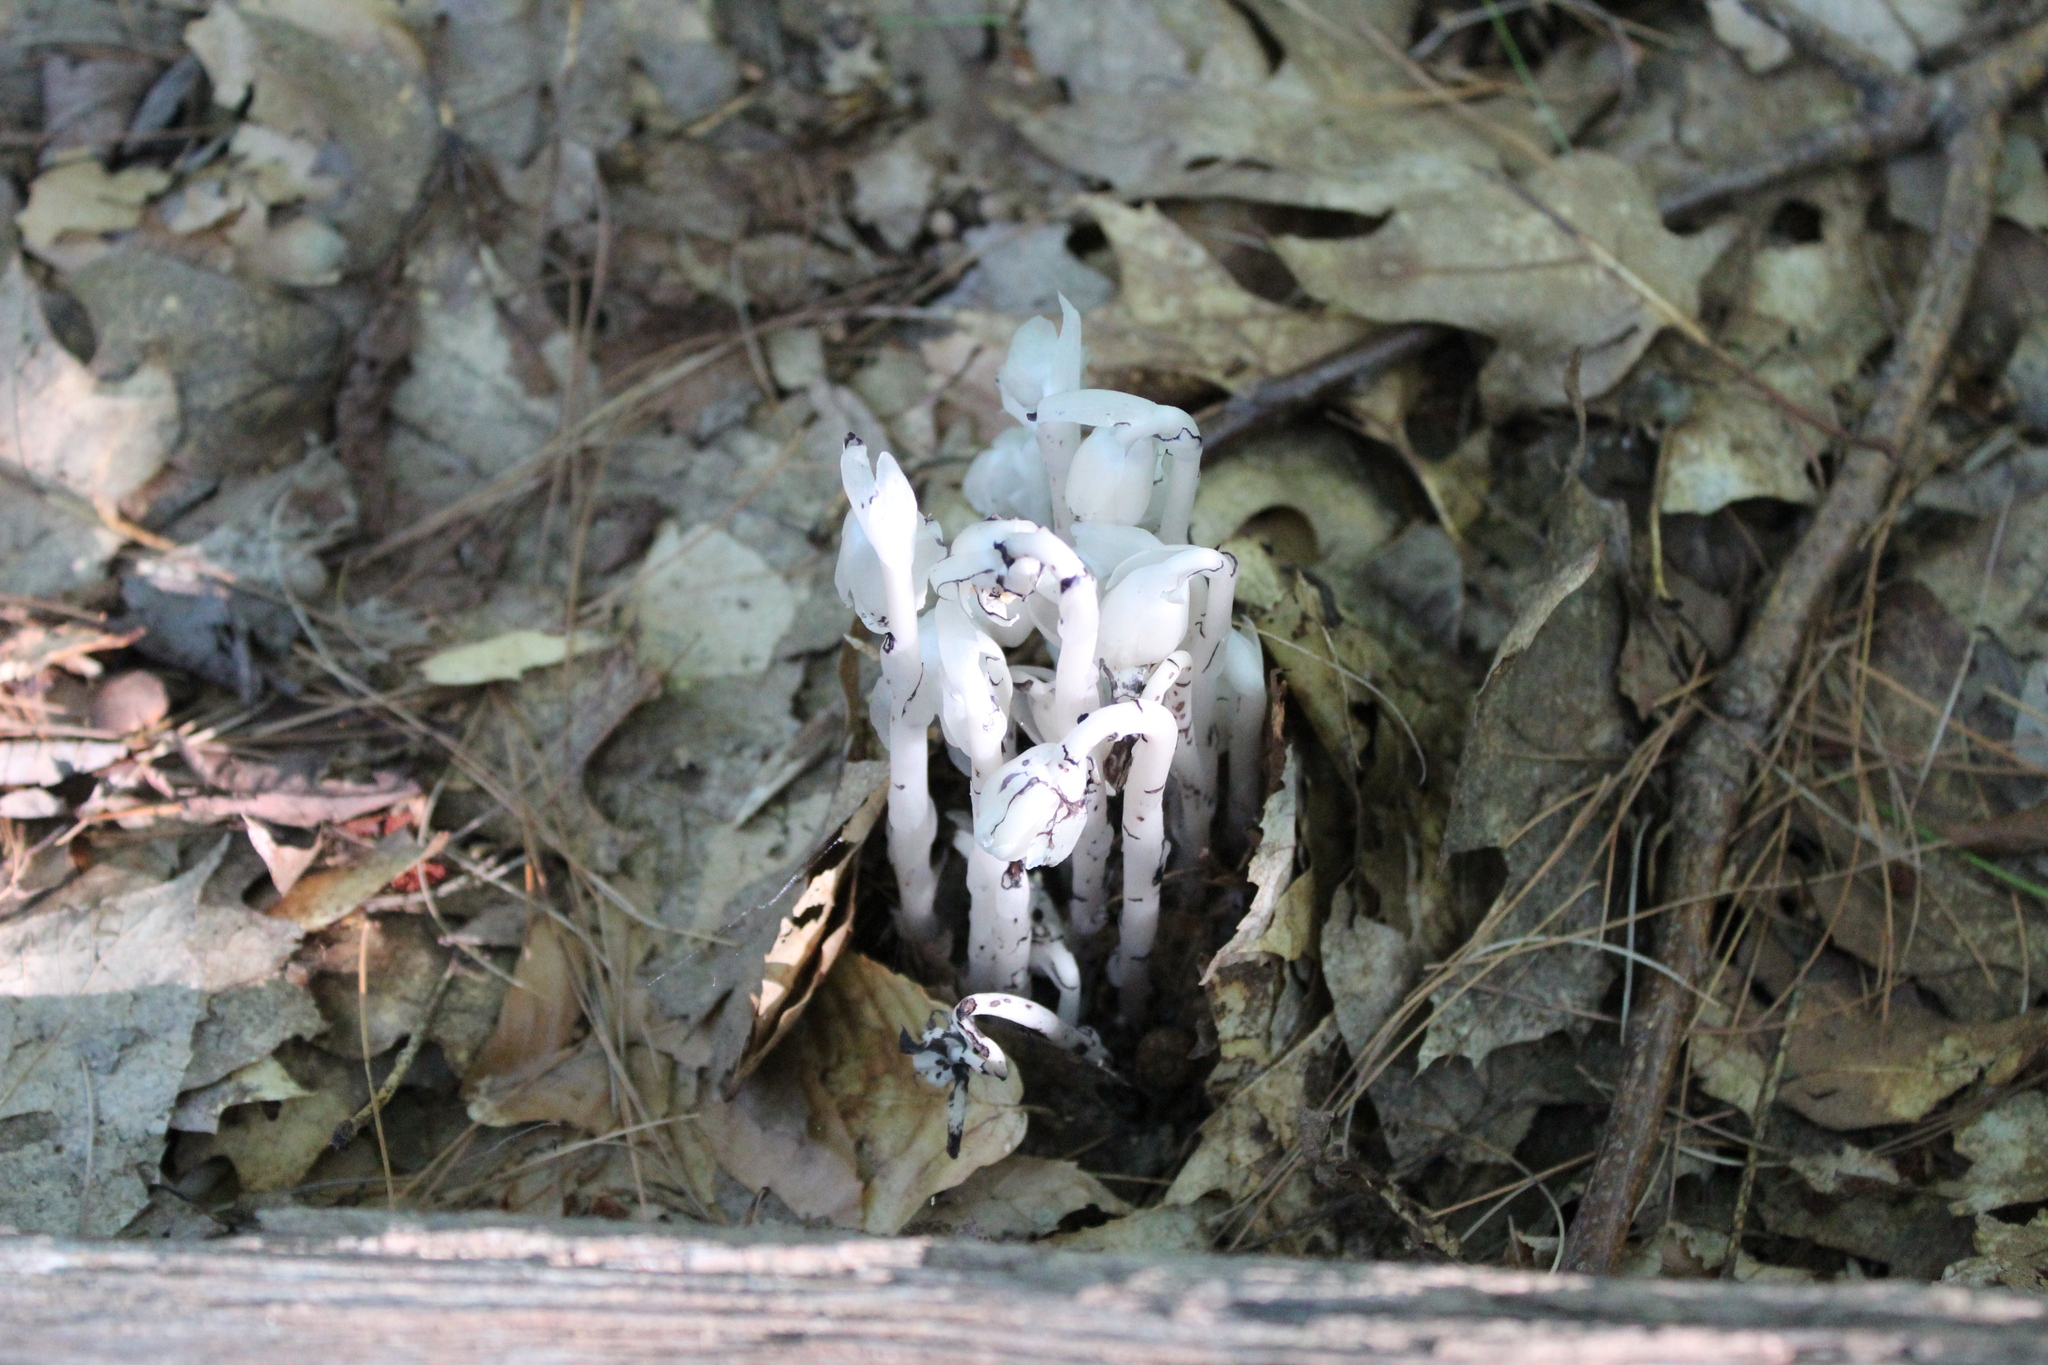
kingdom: Plantae
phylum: Tracheophyta
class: Magnoliopsida
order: Ericales
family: Ericaceae
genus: Monotropa
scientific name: Monotropa uniflora
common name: Convulsion root
